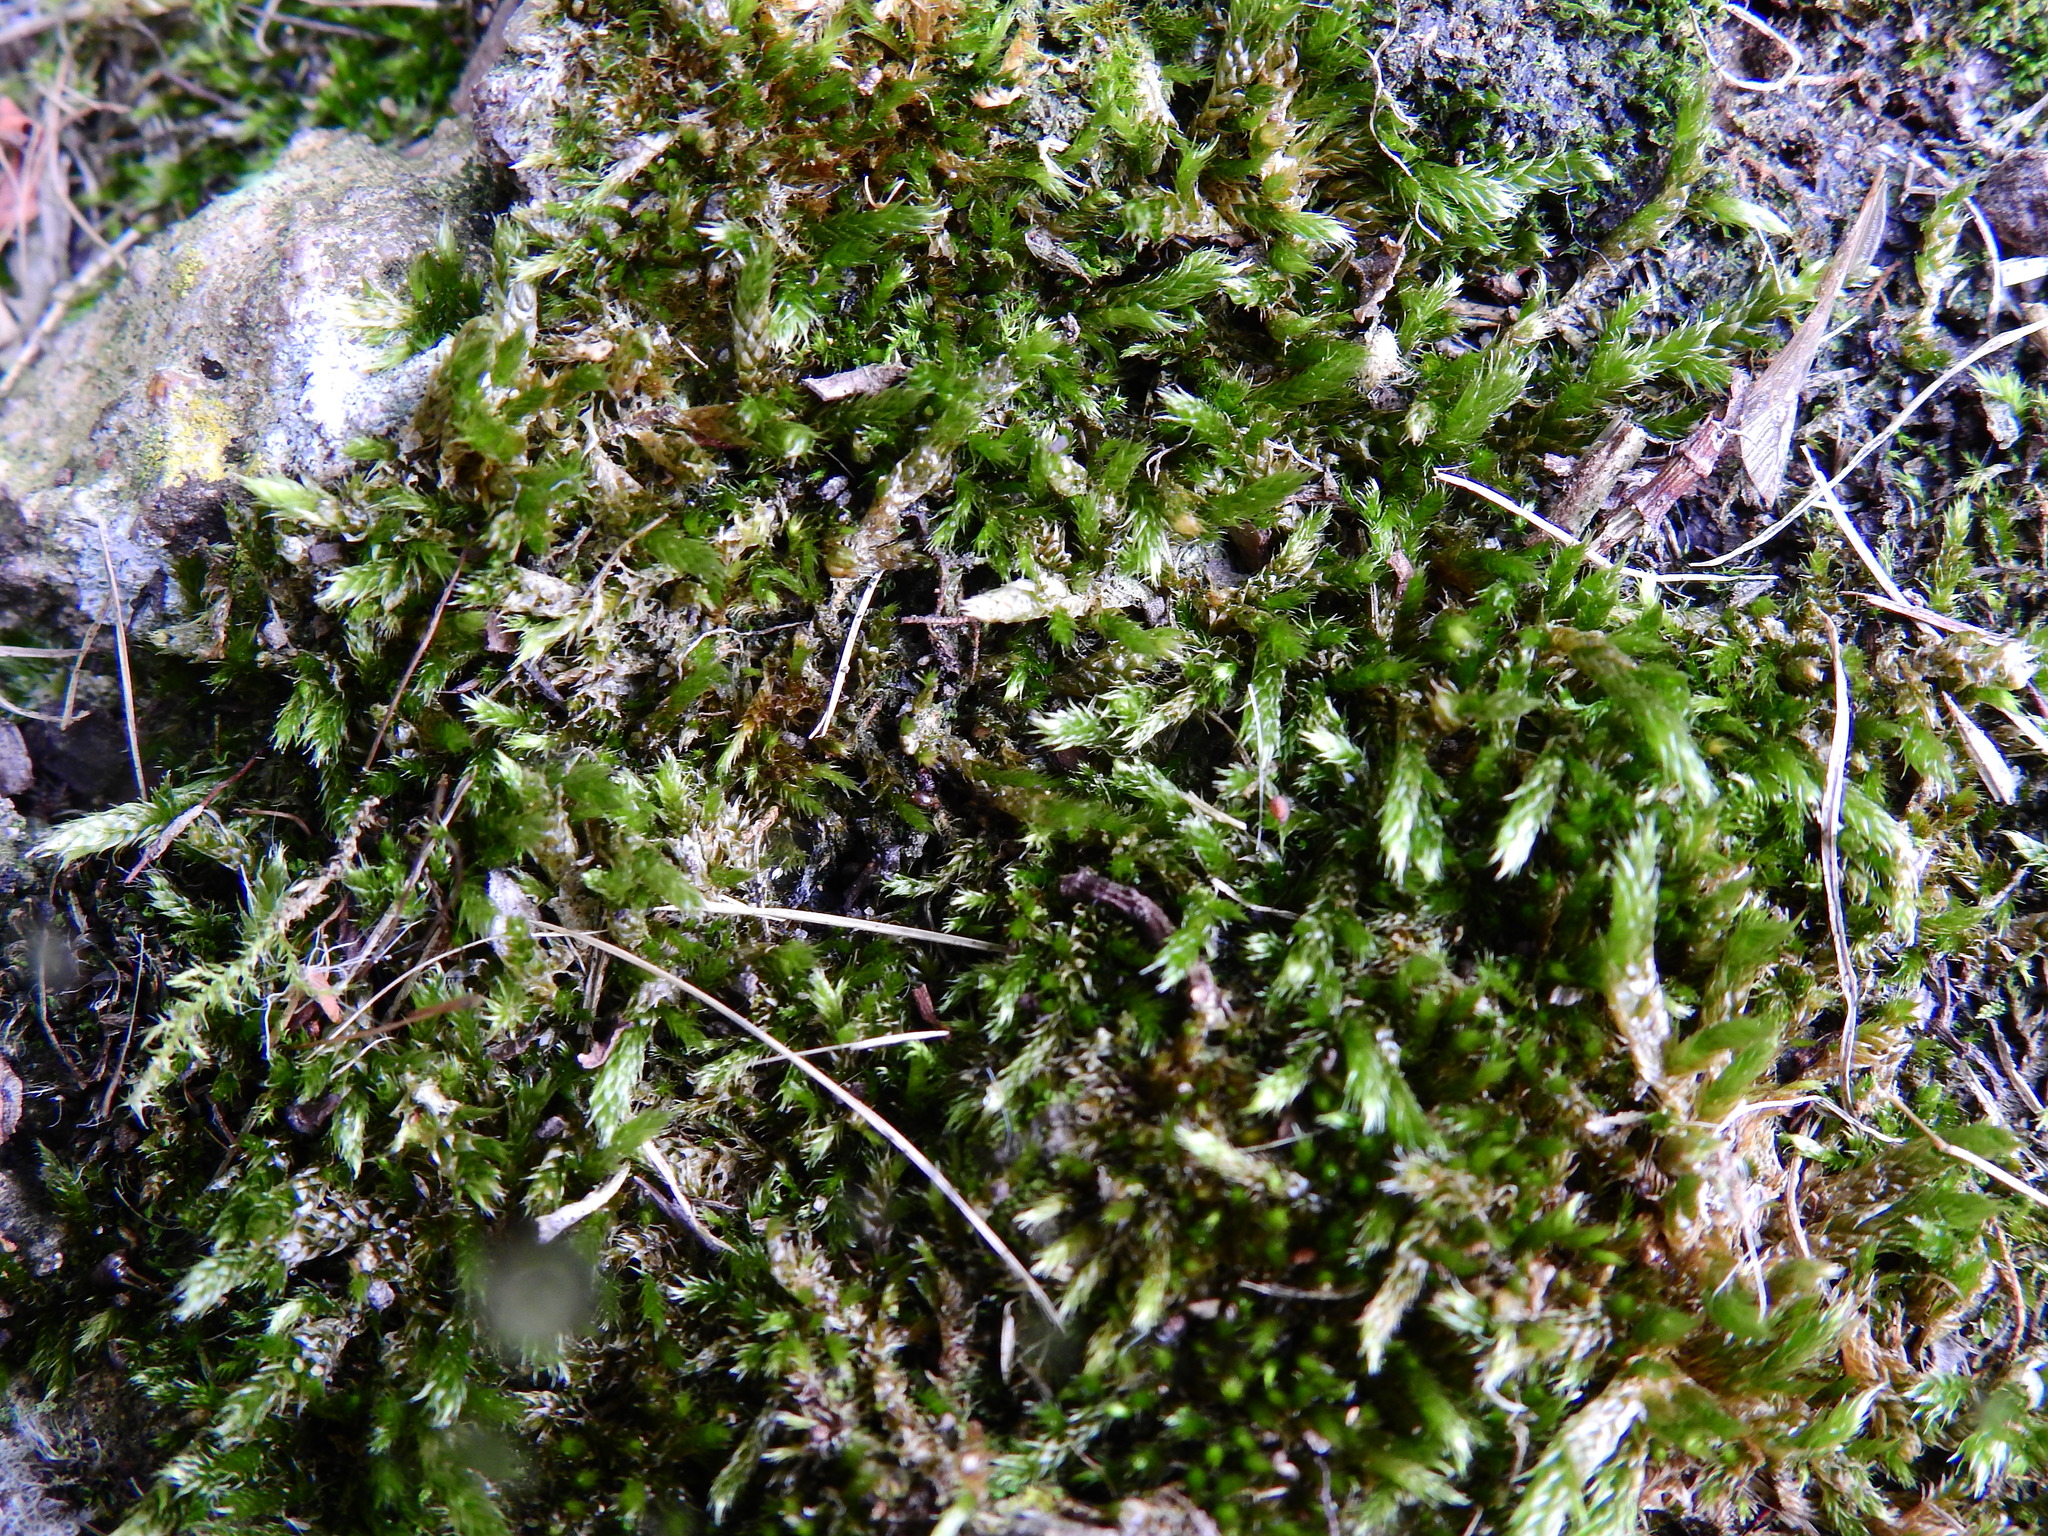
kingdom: Plantae
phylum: Bryophyta
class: Bryopsida
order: Hypnales
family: Hypnaceae
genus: Hypnum
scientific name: Hypnum cupressiforme
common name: Cypress-leaved plait-moss
